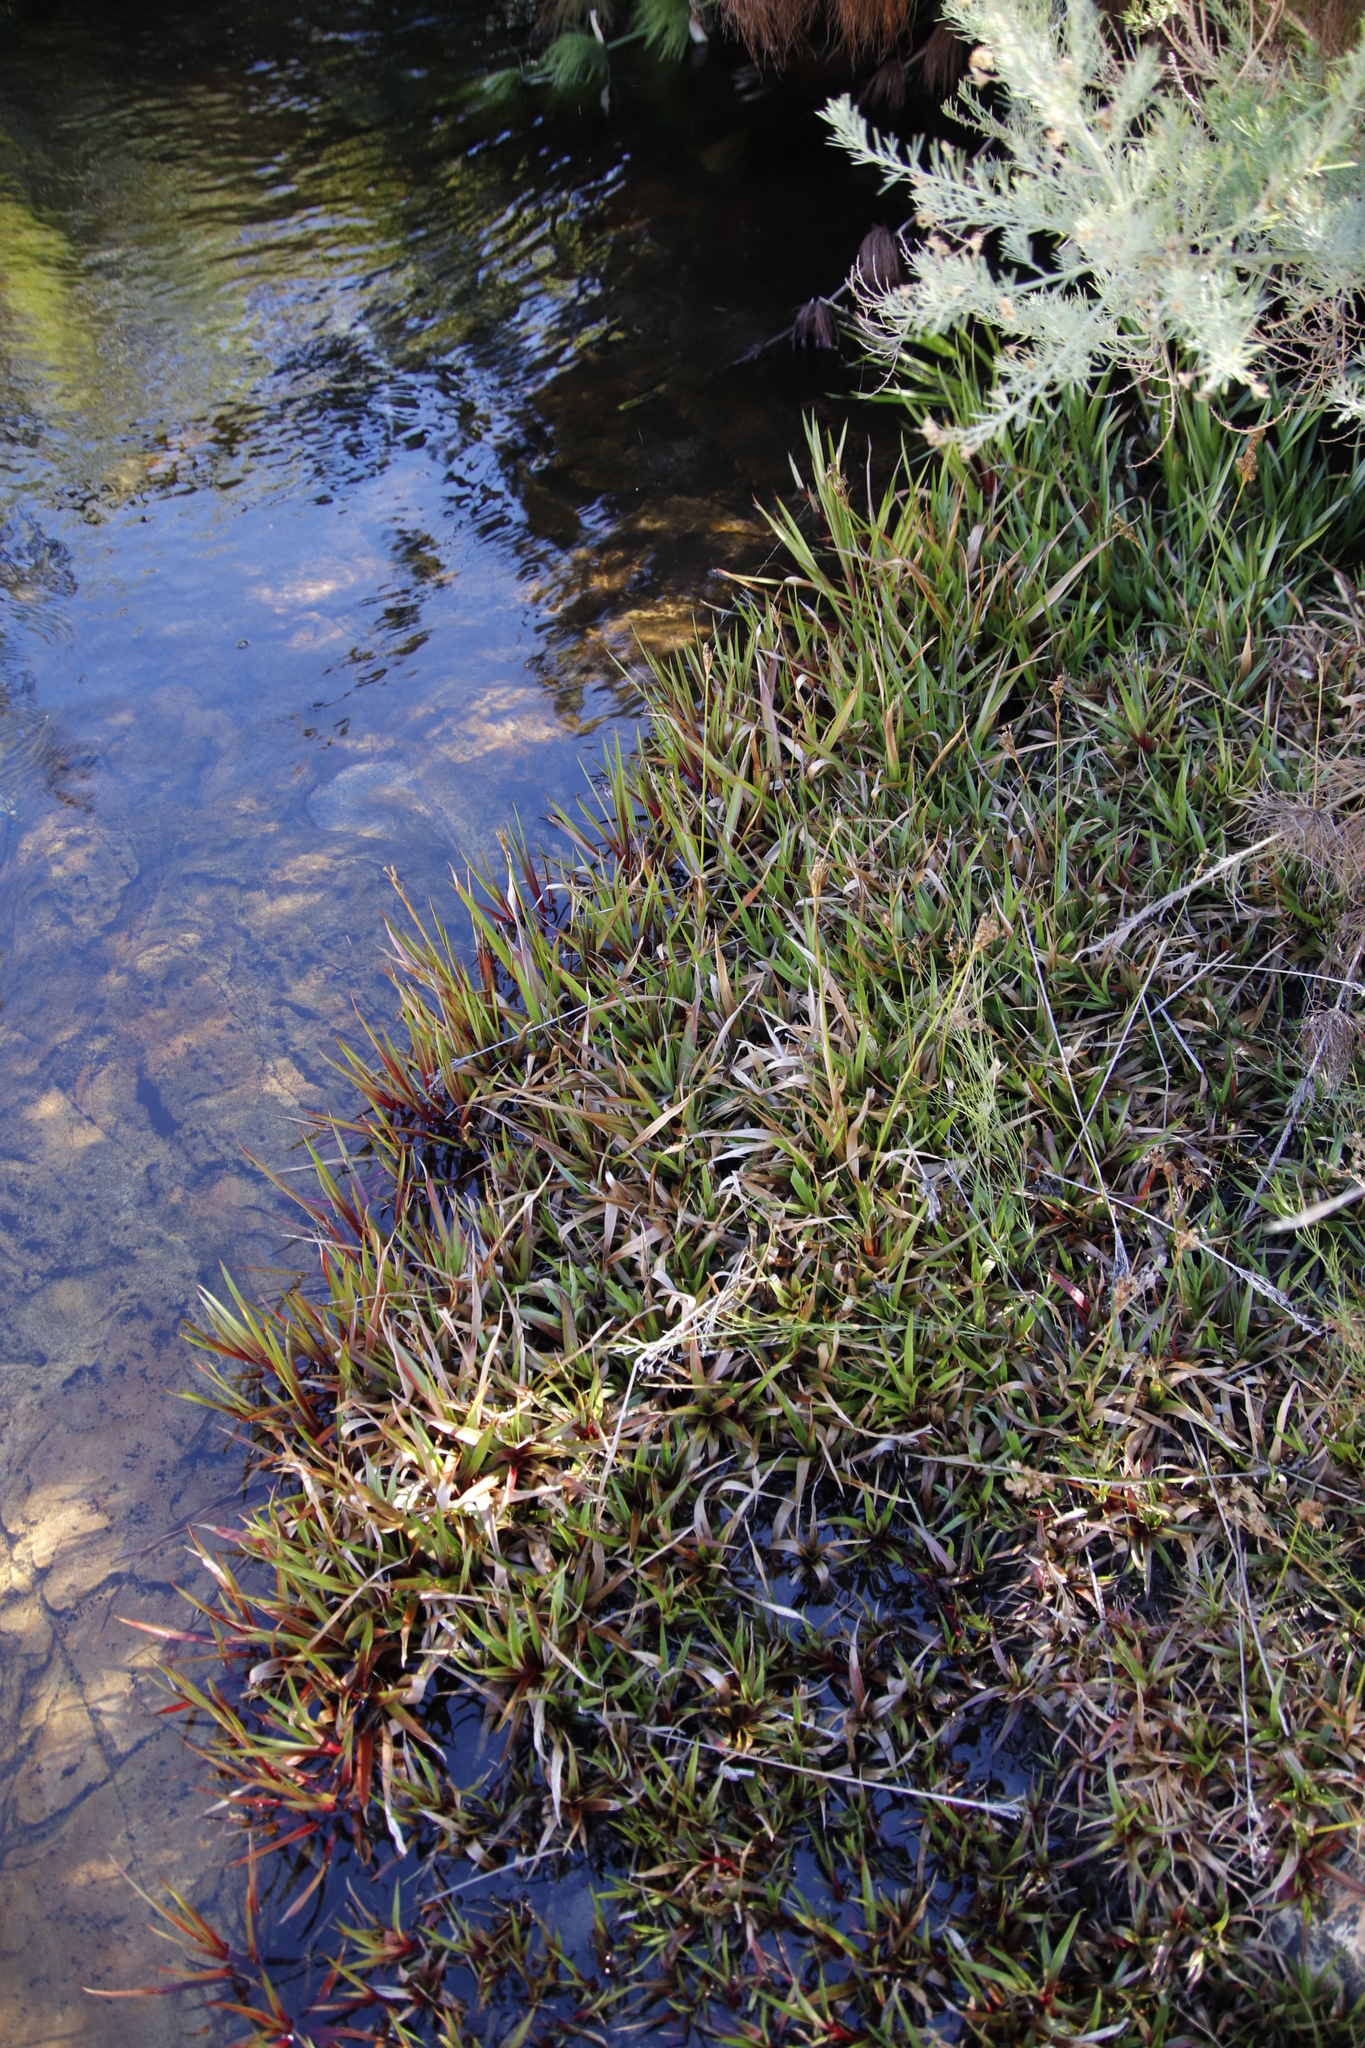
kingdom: Plantae
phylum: Tracheophyta
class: Liliopsida
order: Poales
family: Juncaceae
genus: Juncus
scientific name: Juncus lomatophyllus
